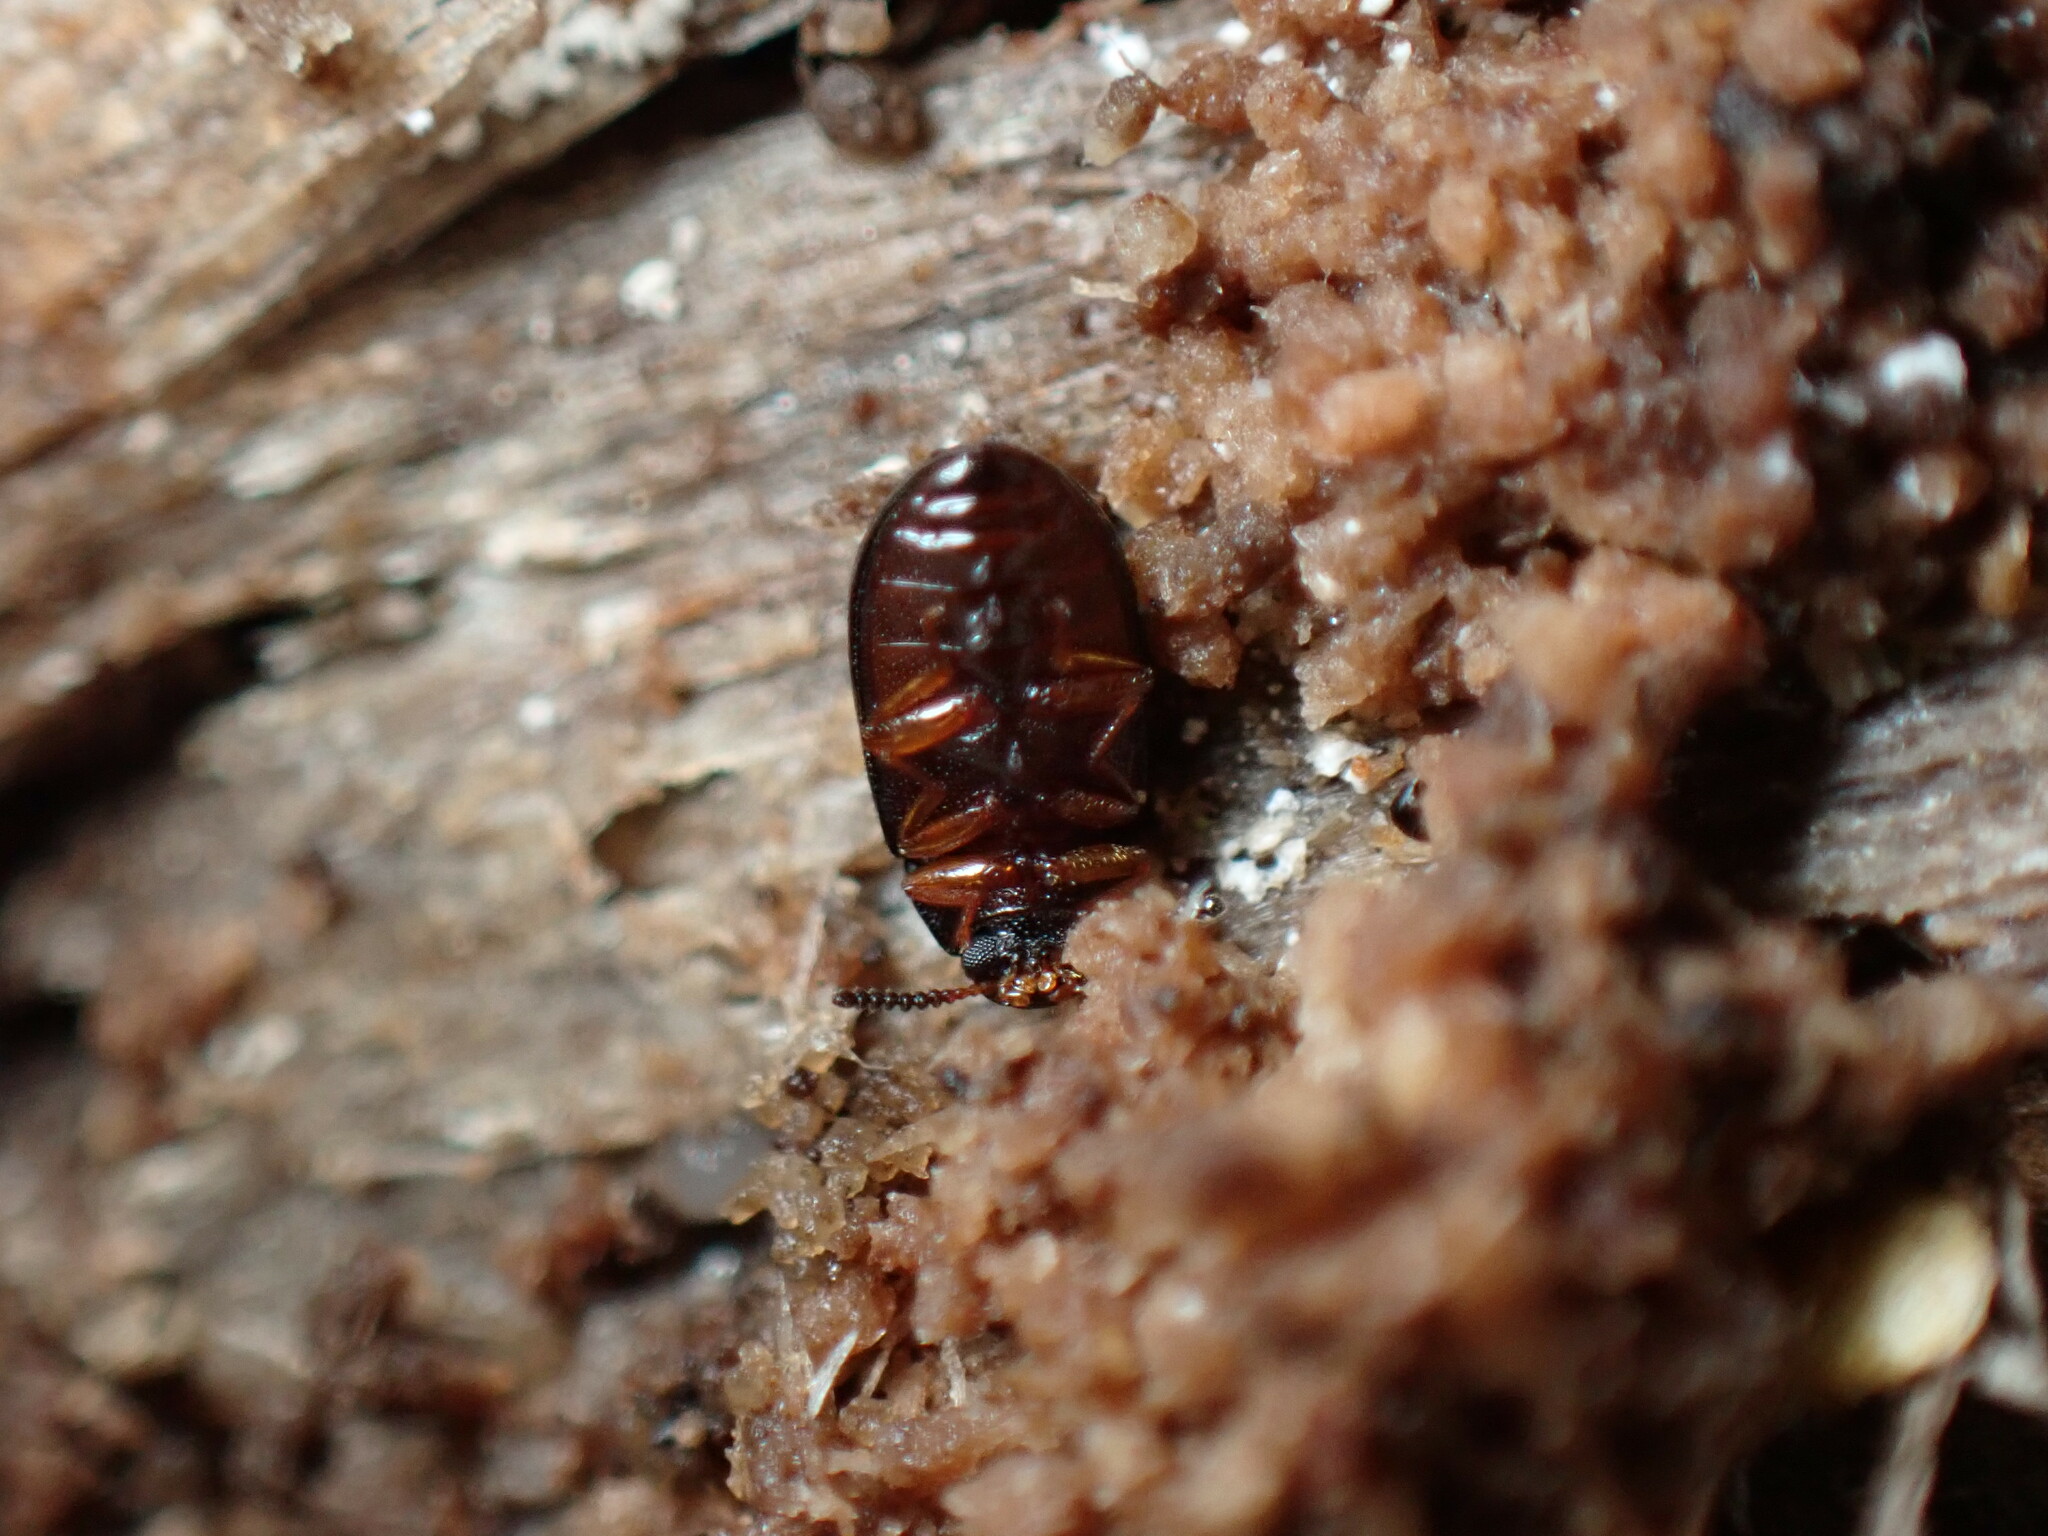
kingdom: Animalia
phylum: Arthropoda
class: Insecta
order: Coleoptera
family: Tenebrionidae
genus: Neomida
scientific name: Neomida bicornis
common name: Two-horned darkling beetle
